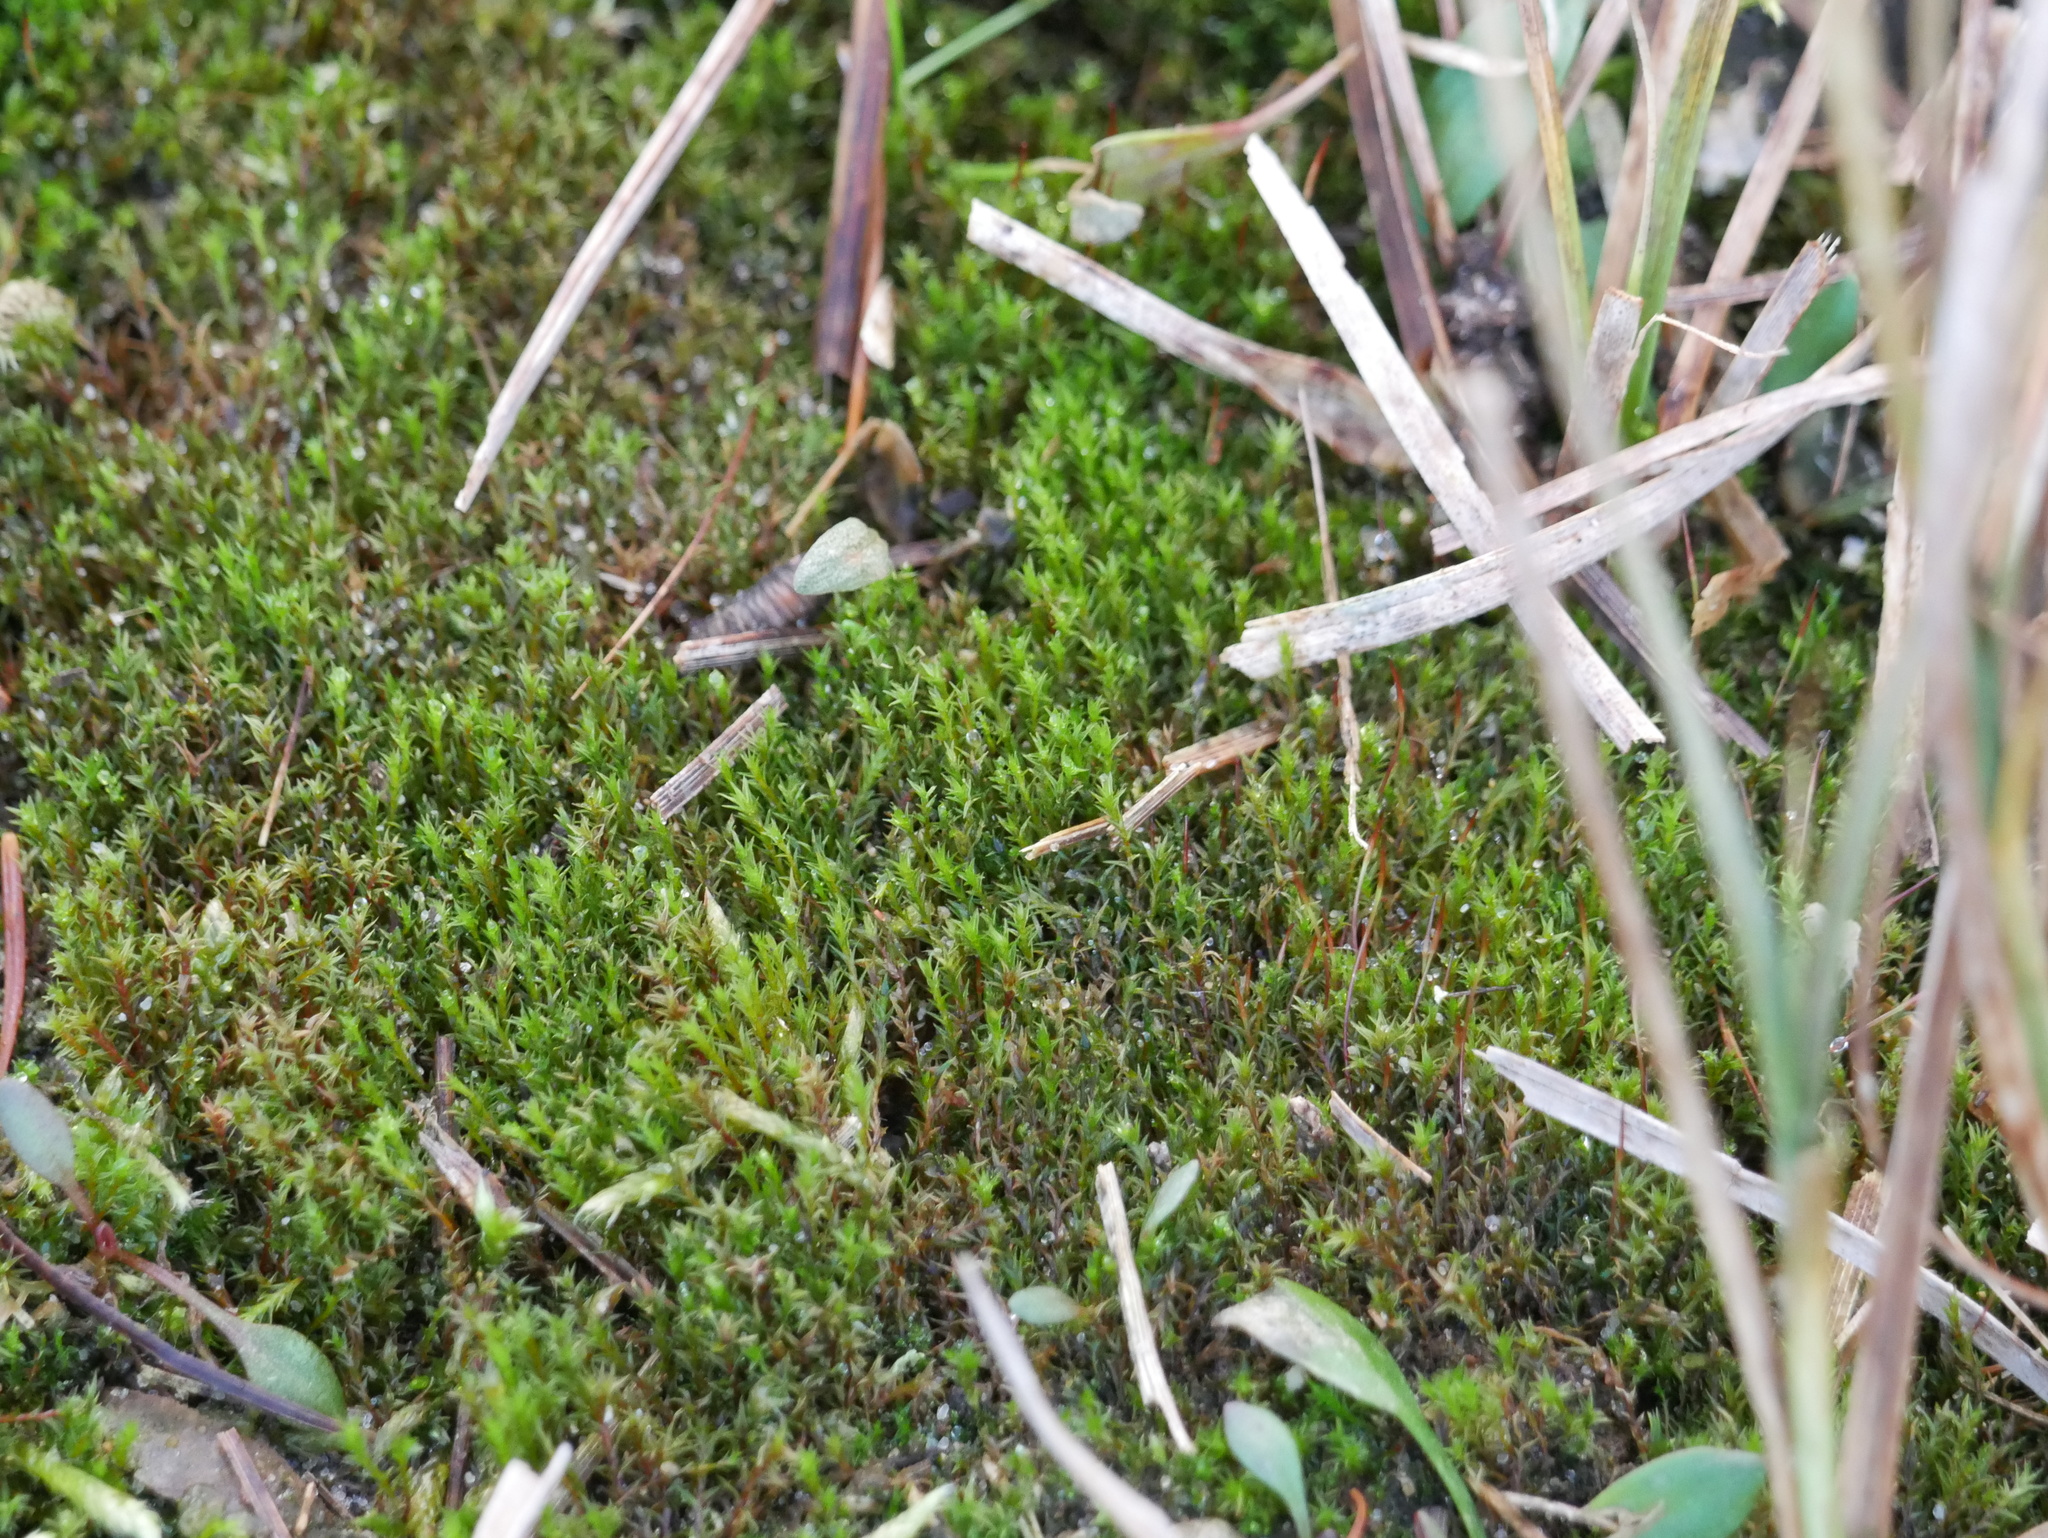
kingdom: Plantae
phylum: Bryophyta
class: Bryopsida
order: Dicranales
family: Ditrichaceae
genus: Ceratodon
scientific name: Ceratodon purpureus
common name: Redshank
